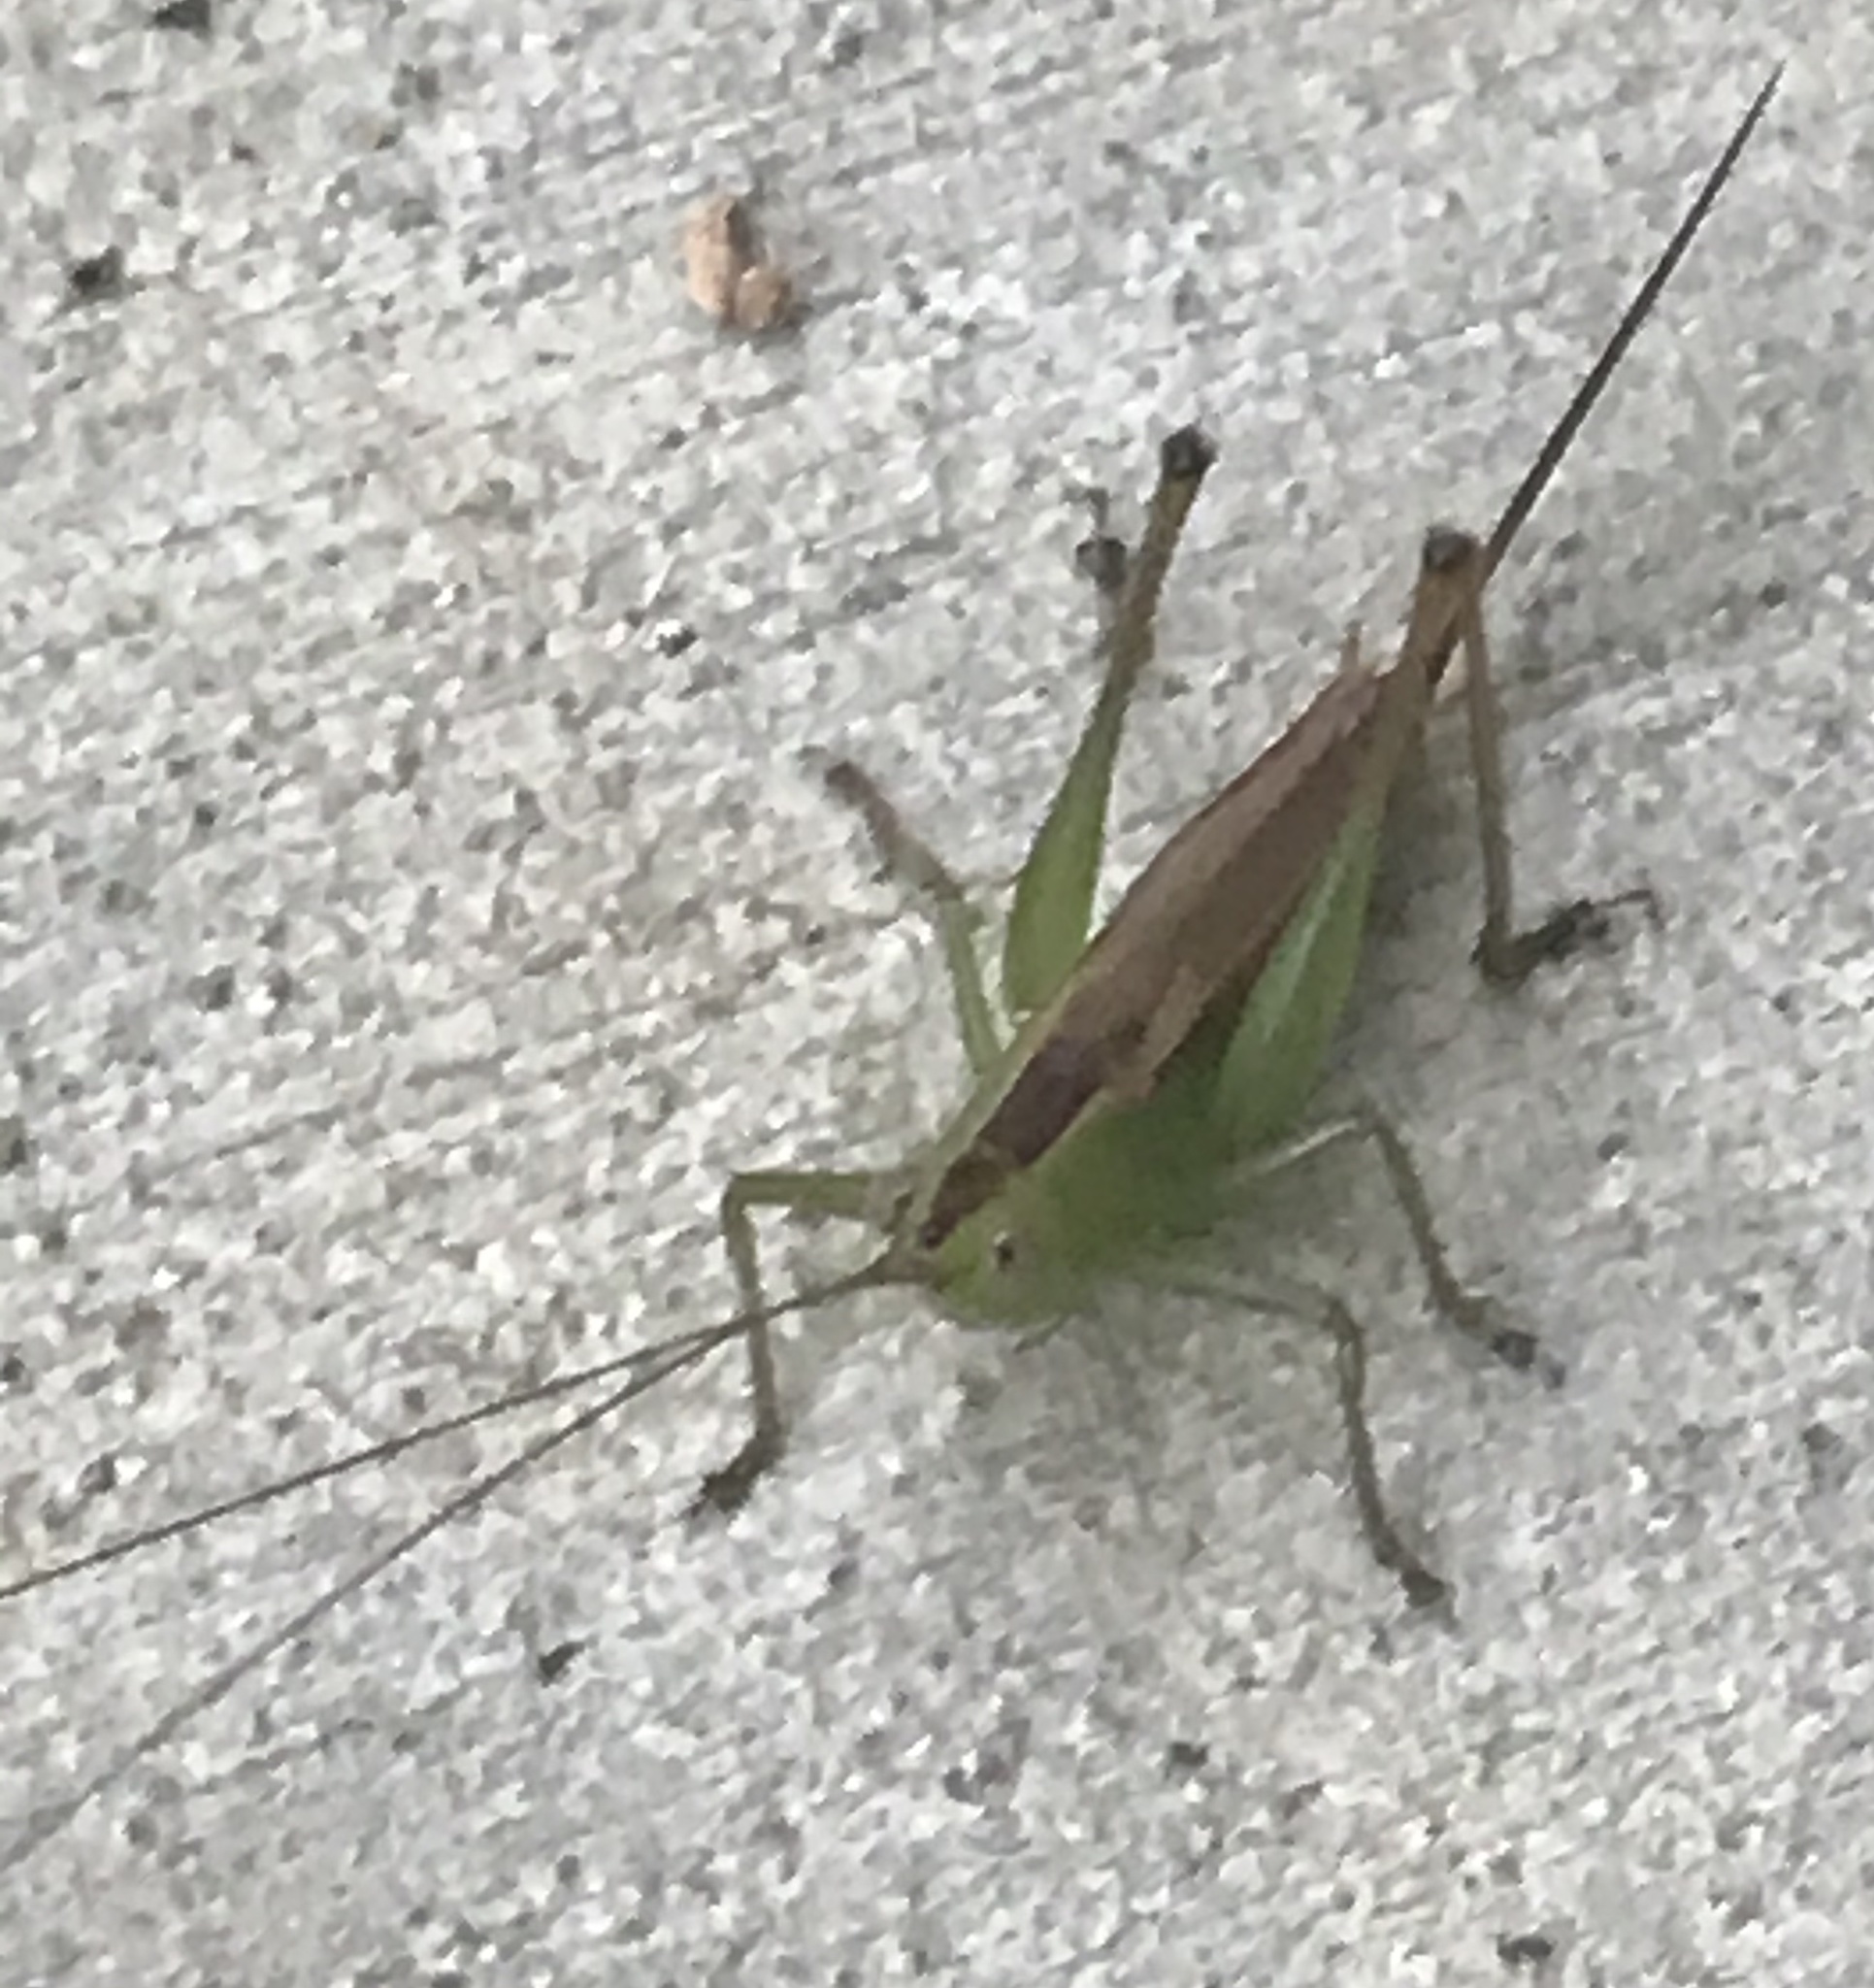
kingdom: Animalia
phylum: Arthropoda
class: Insecta
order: Orthoptera
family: Tettigoniidae
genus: Conocephalus
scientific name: Conocephalus brevipennis
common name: Short-winged meadow katydid
